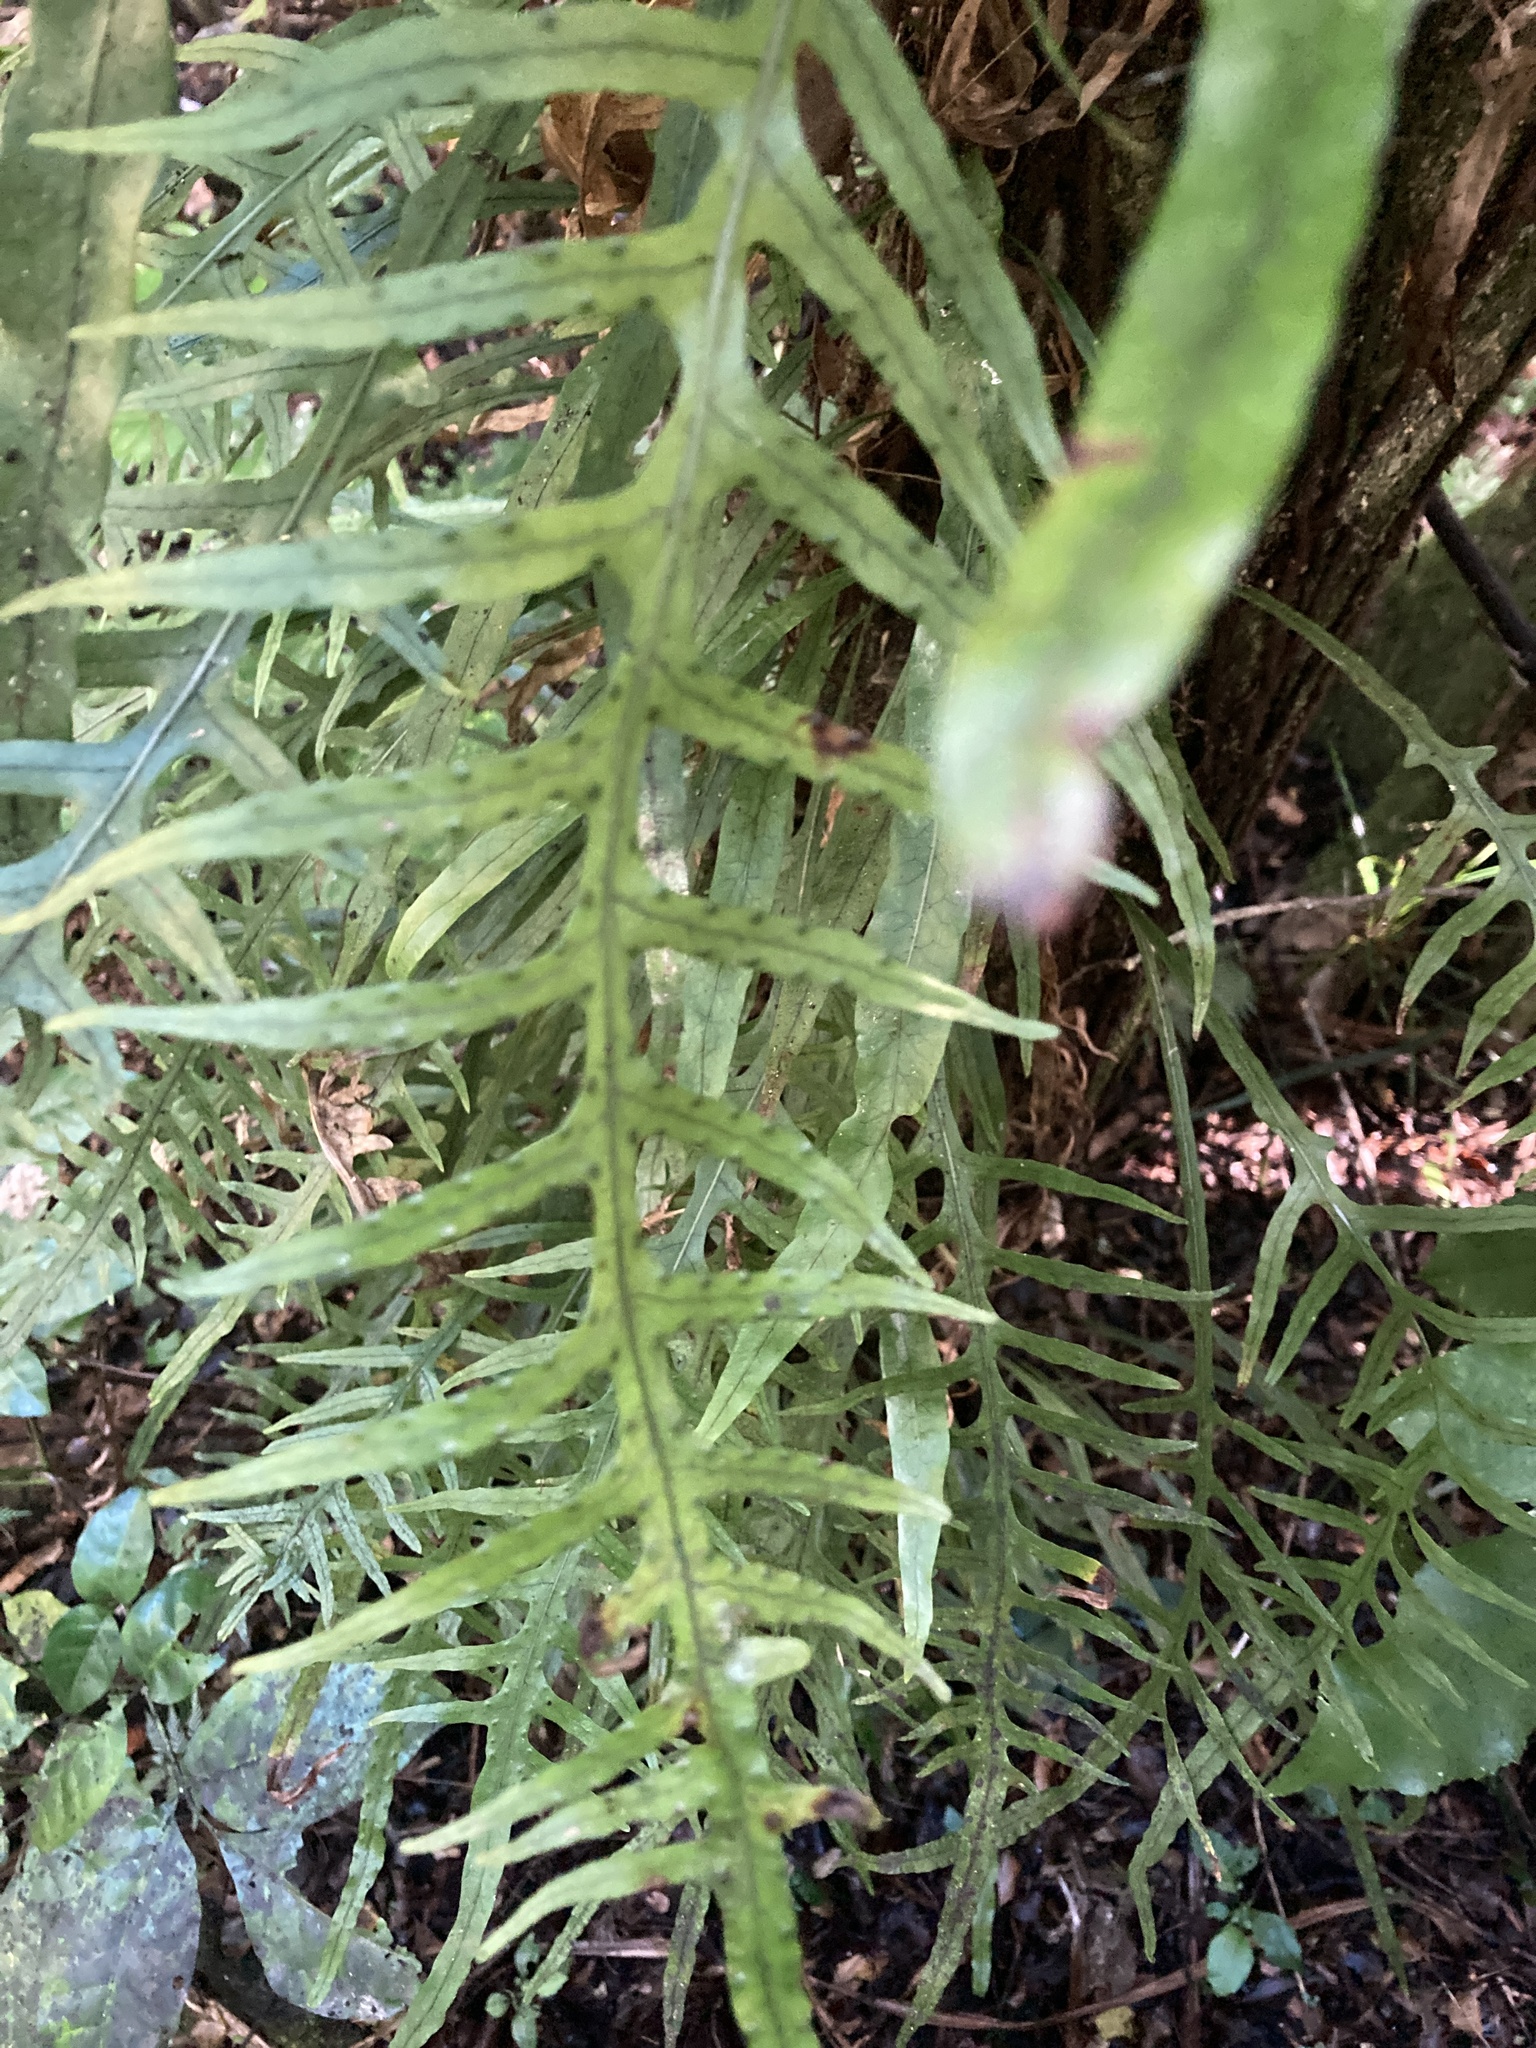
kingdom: Plantae
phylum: Tracheophyta
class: Polypodiopsida
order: Polypodiales
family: Polypodiaceae
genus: Lecanopteris
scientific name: Lecanopteris scandens
